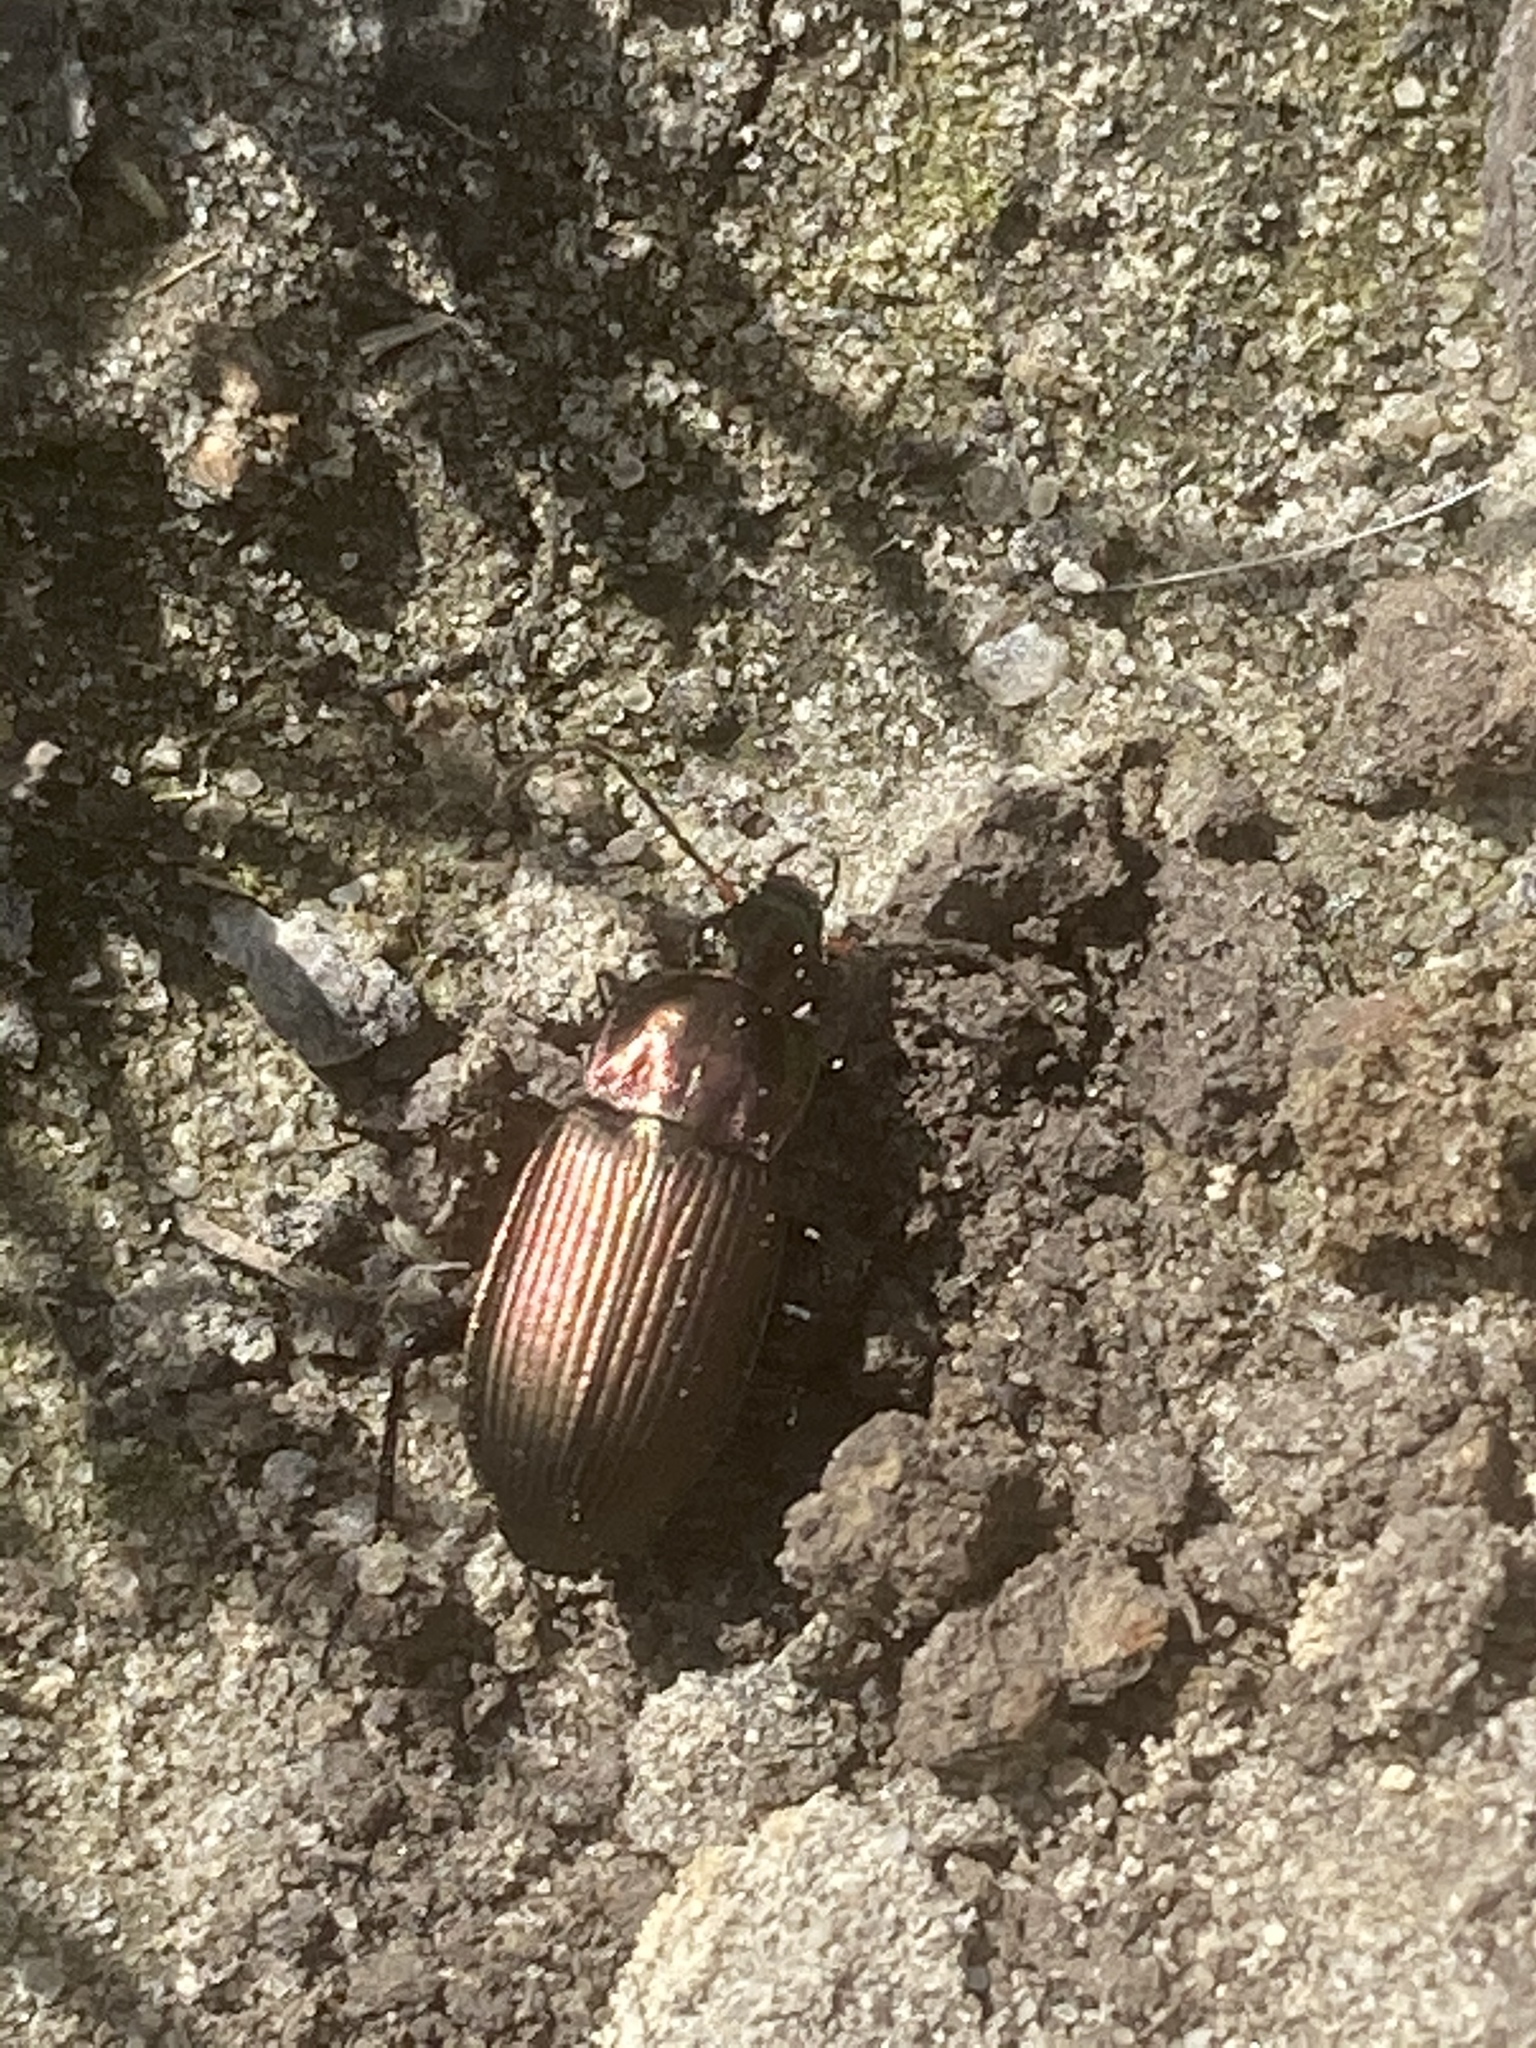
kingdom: Animalia
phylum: Arthropoda
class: Insecta
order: Coleoptera
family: Carabidae
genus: Poecilus
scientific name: Poecilus cupreus
